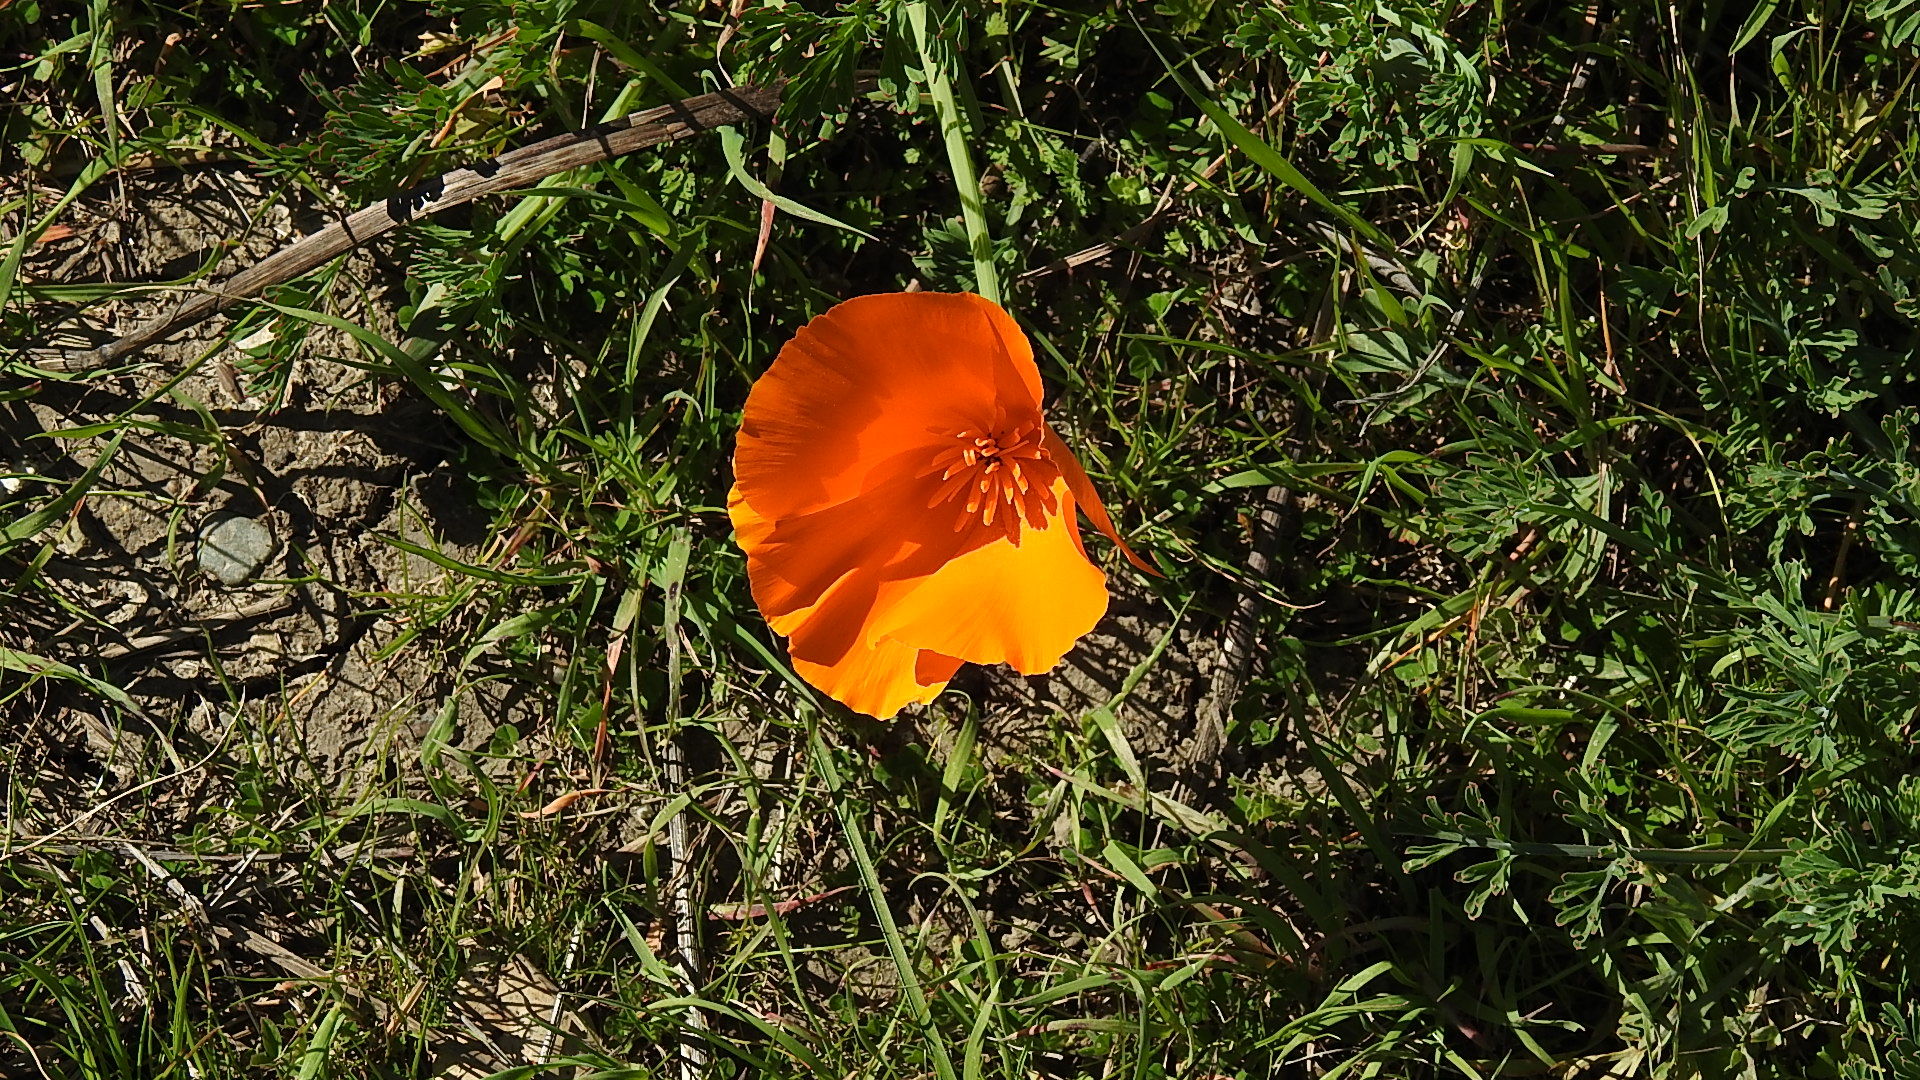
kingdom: Plantae
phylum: Tracheophyta
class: Magnoliopsida
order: Ranunculales
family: Papaveraceae
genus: Eschscholzia
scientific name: Eschscholzia californica
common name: California poppy
